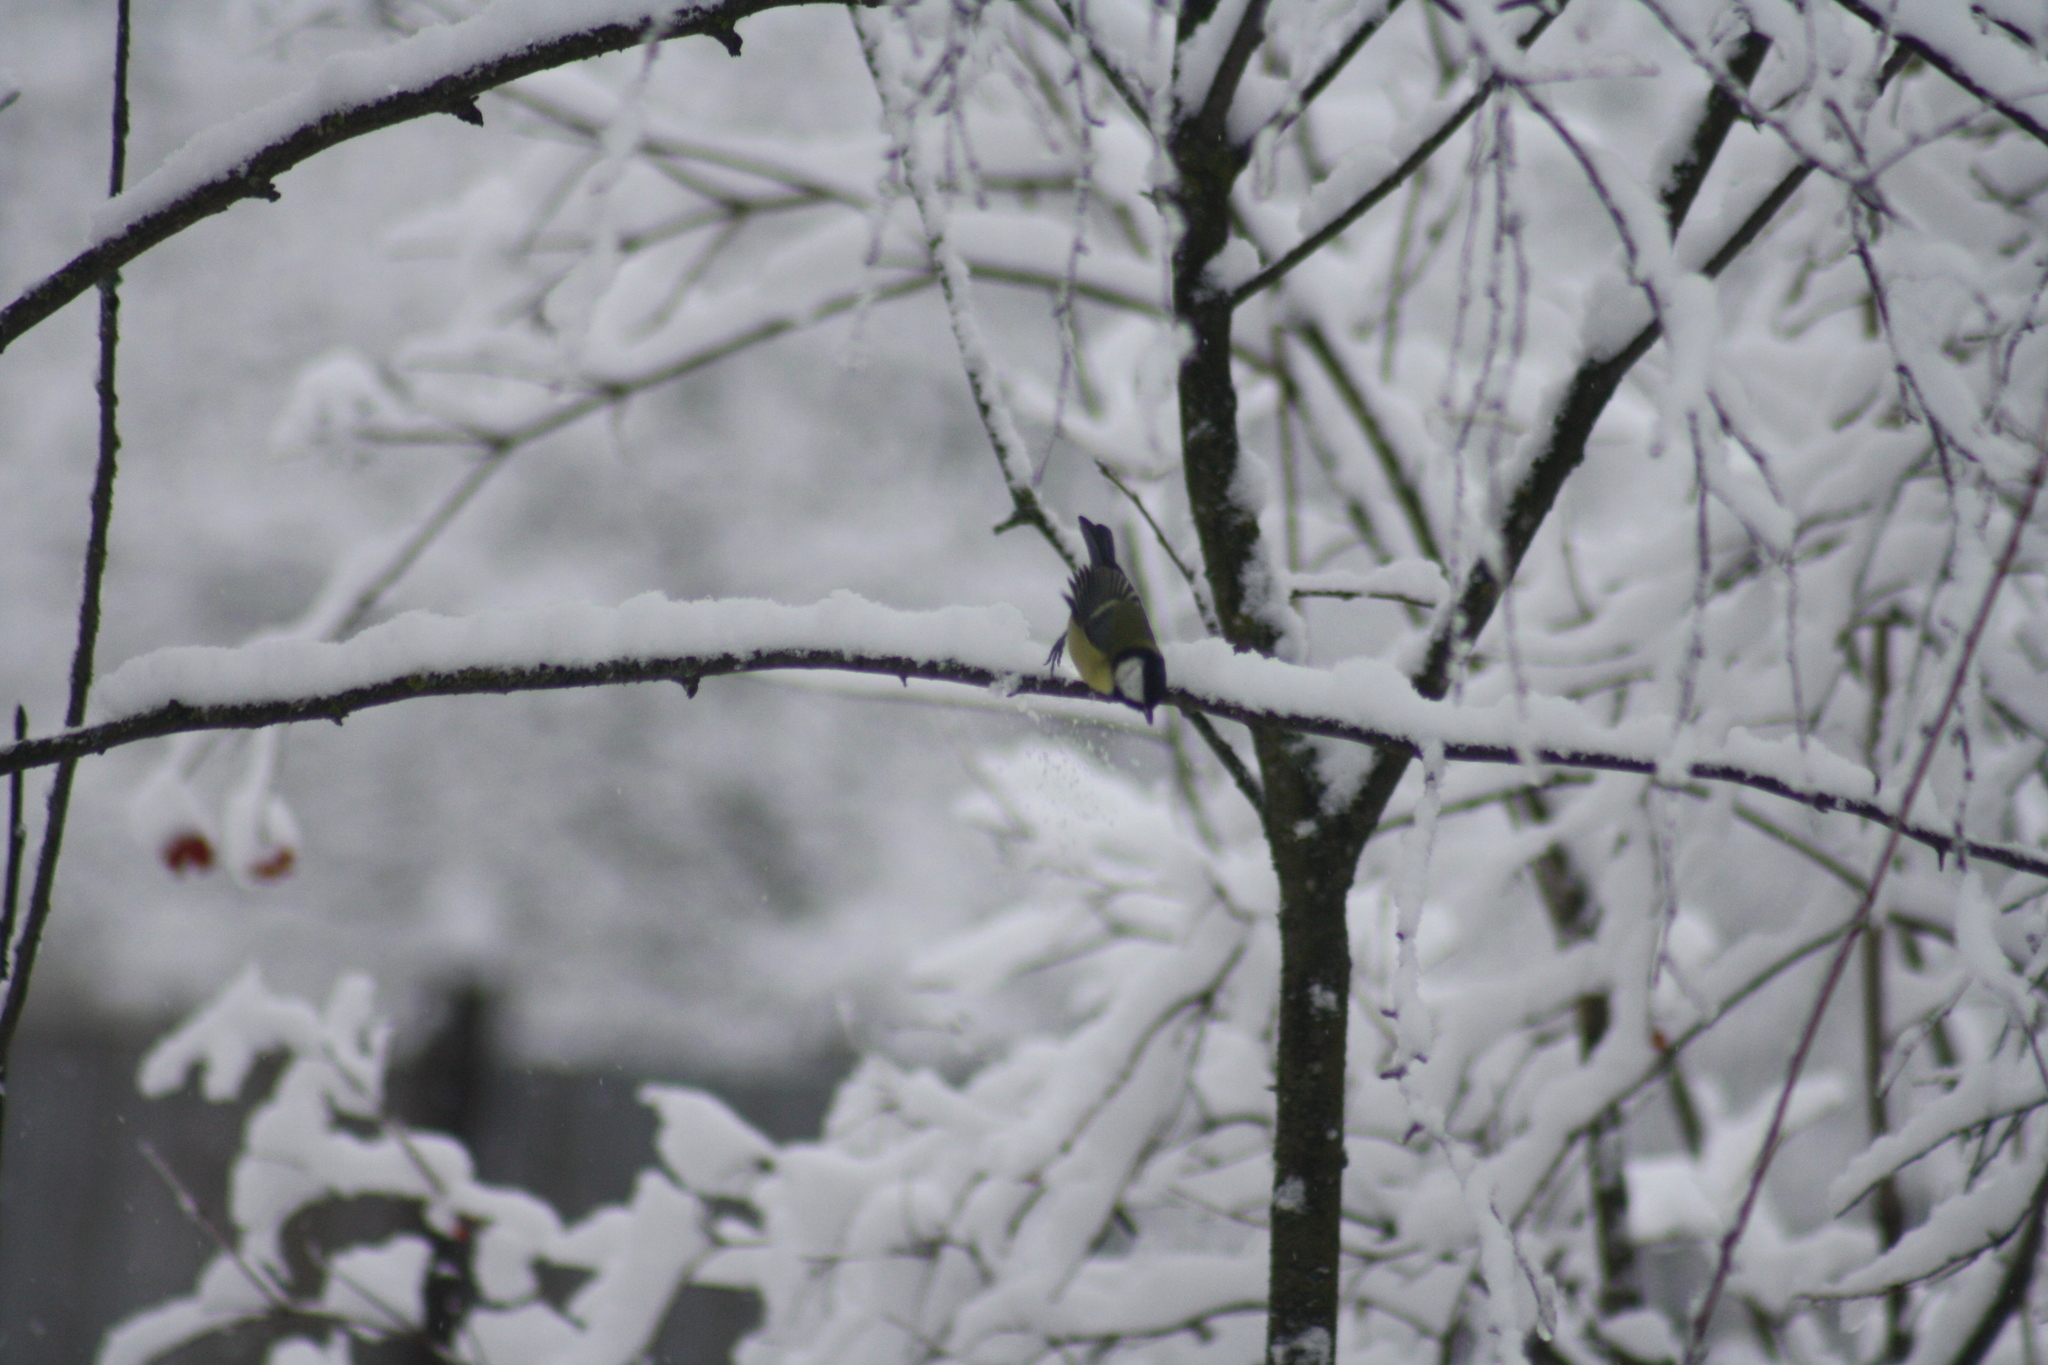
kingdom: Animalia
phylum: Chordata
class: Aves
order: Passeriformes
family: Paridae
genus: Parus
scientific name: Parus major
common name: Great tit
